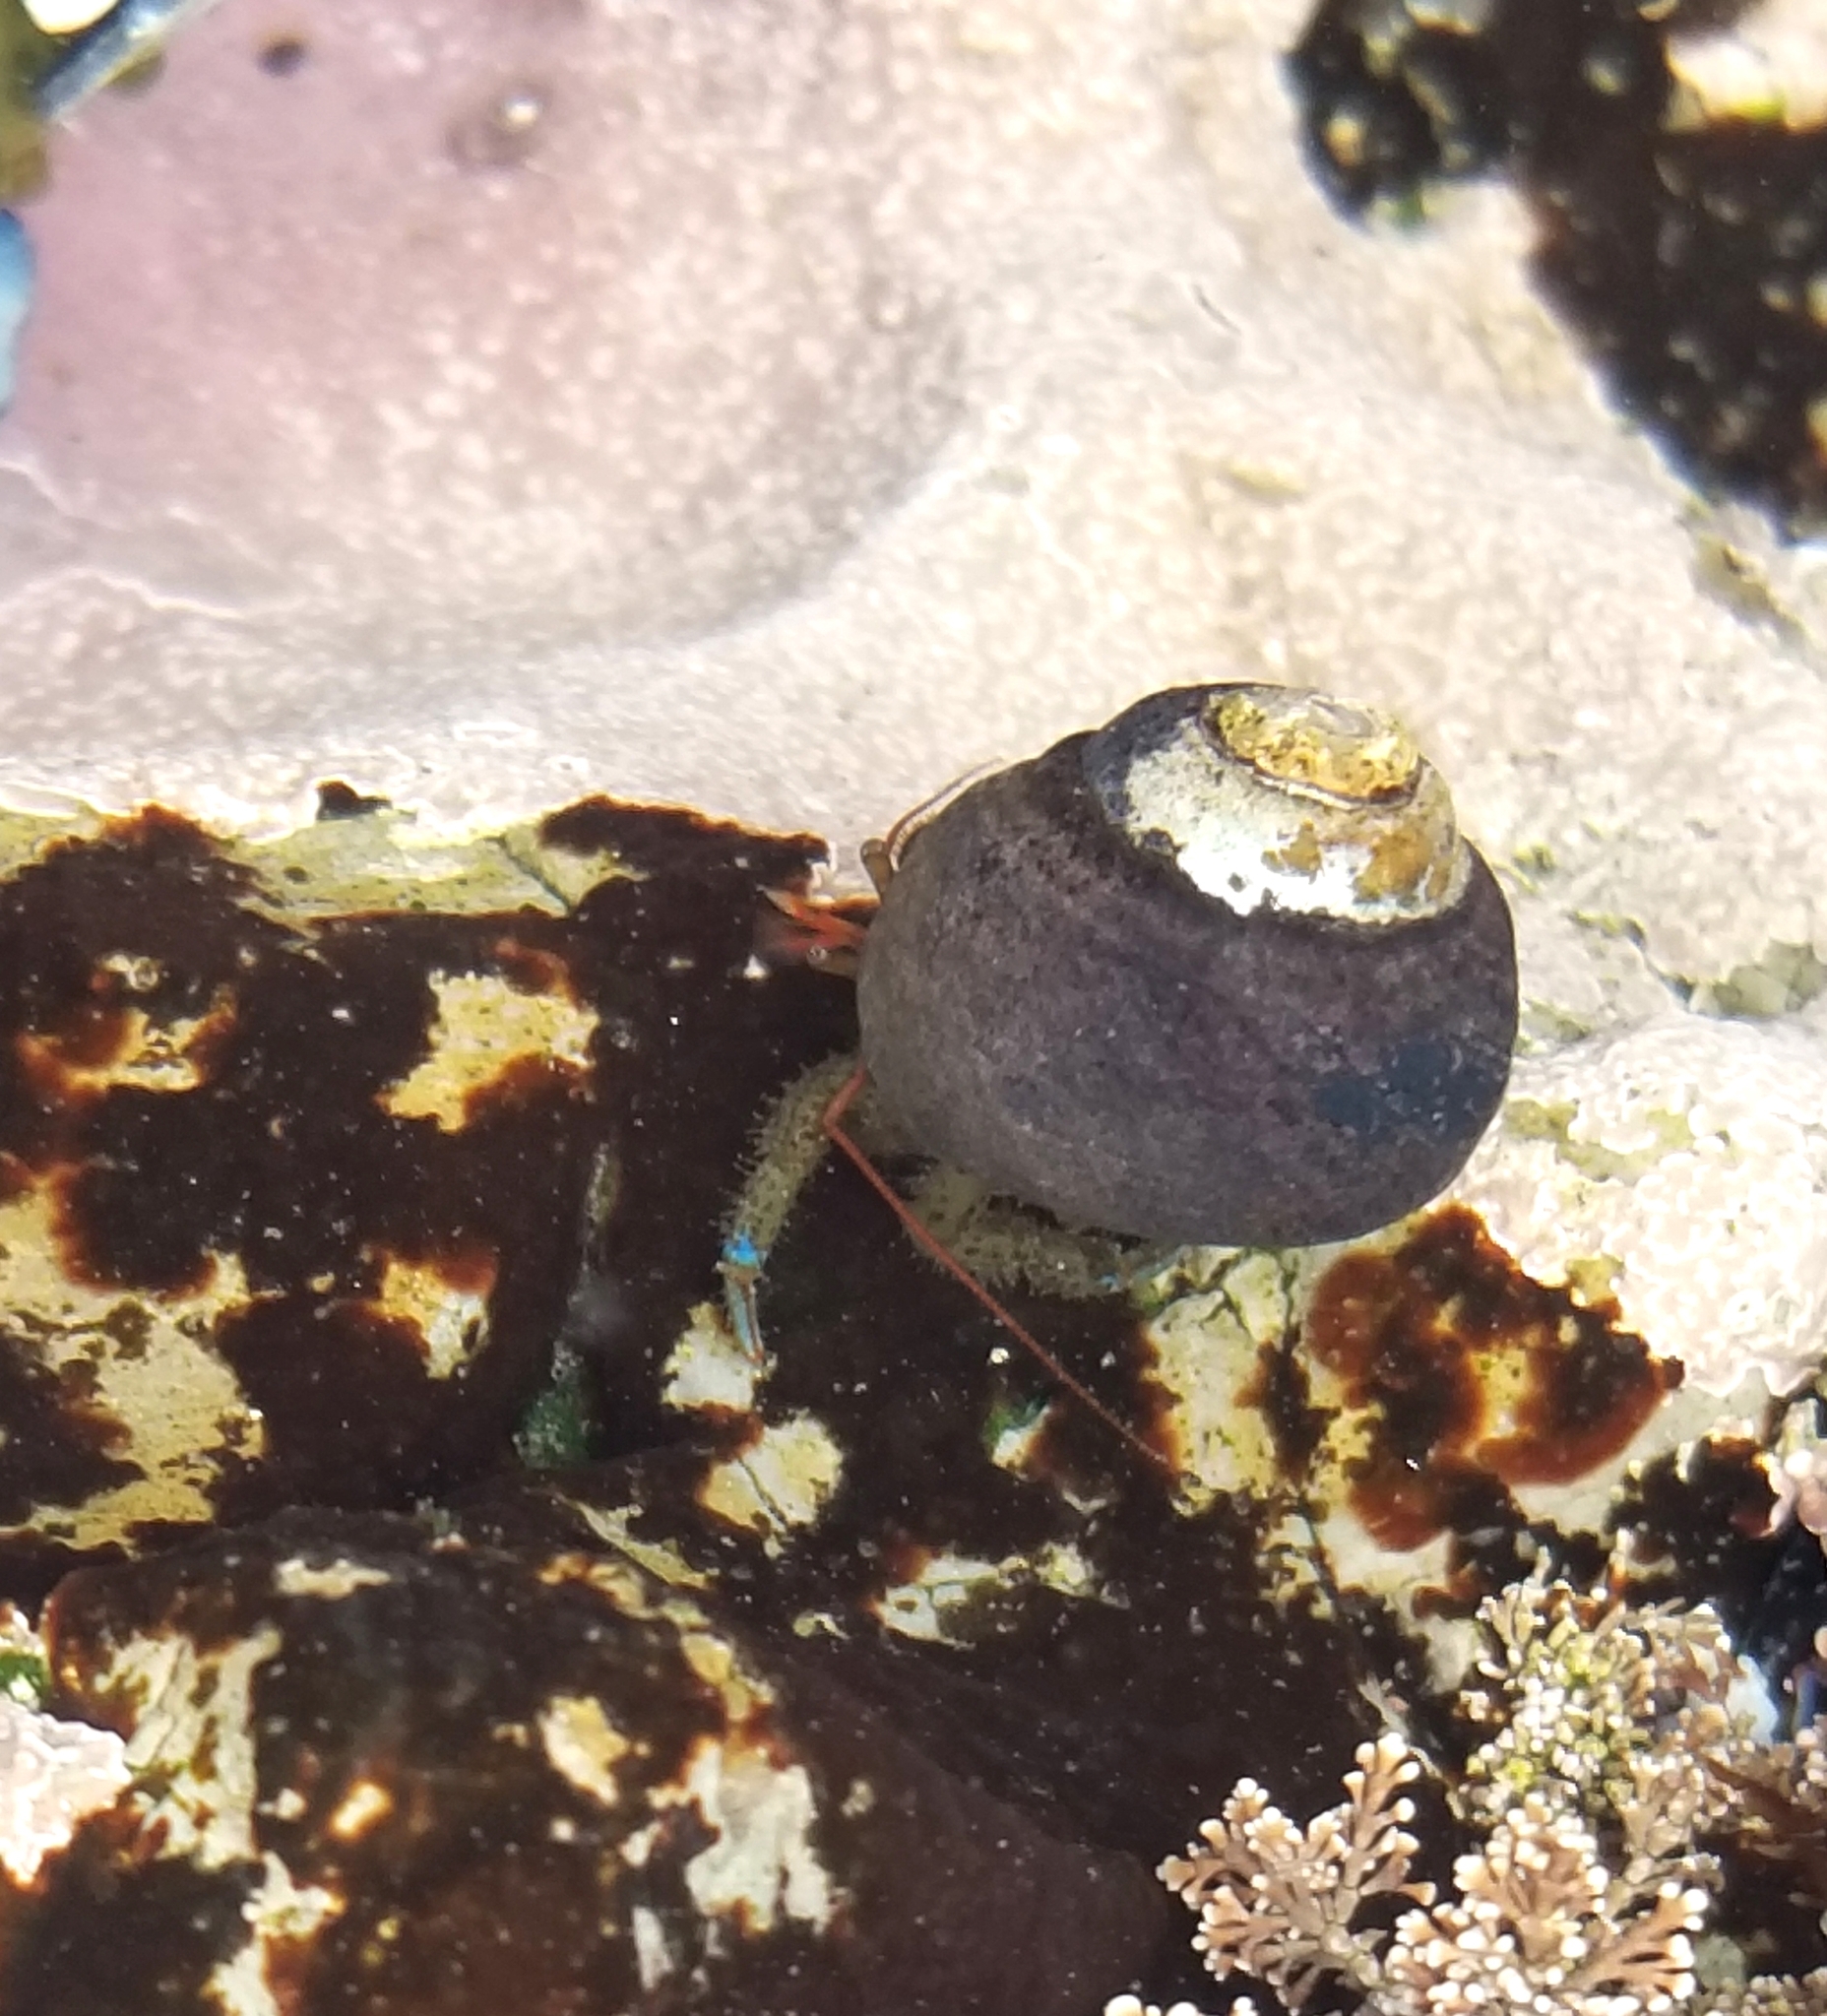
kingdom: Animalia
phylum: Arthropoda
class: Malacostraca
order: Decapoda
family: Paguridae
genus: Pagurus
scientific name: Pagurus samuelis
